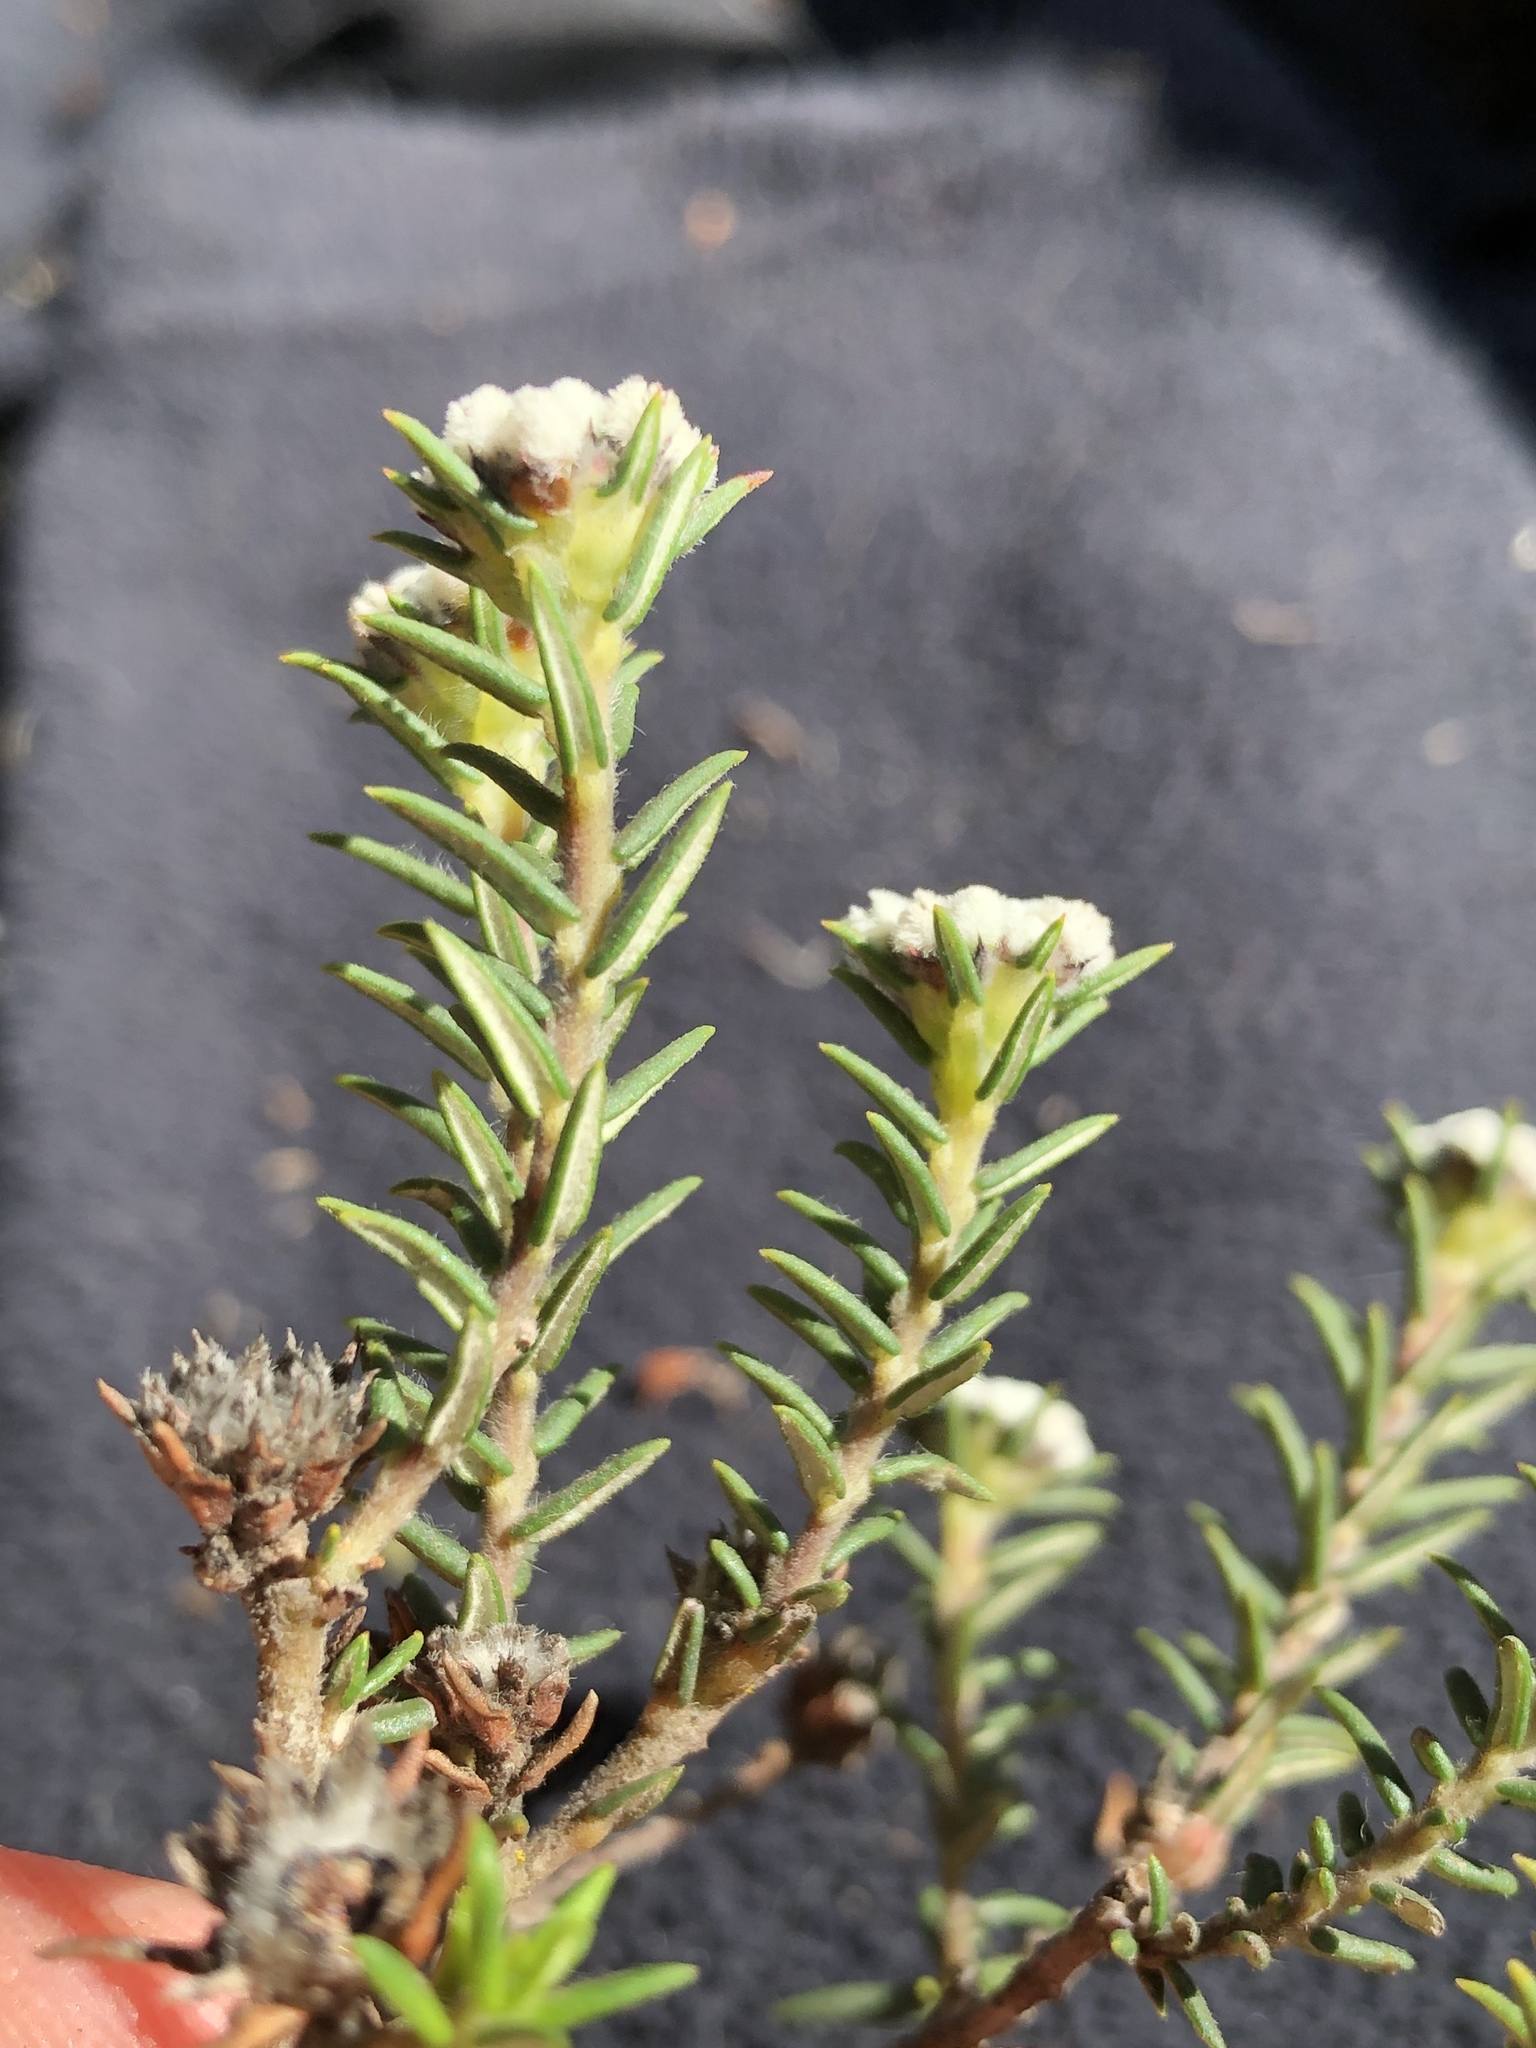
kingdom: Plantae
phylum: Tracheophyta
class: Magnoliopsida
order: Rosales
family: Rhamnaceae
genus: Phylica
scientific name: Phylica propinqua
